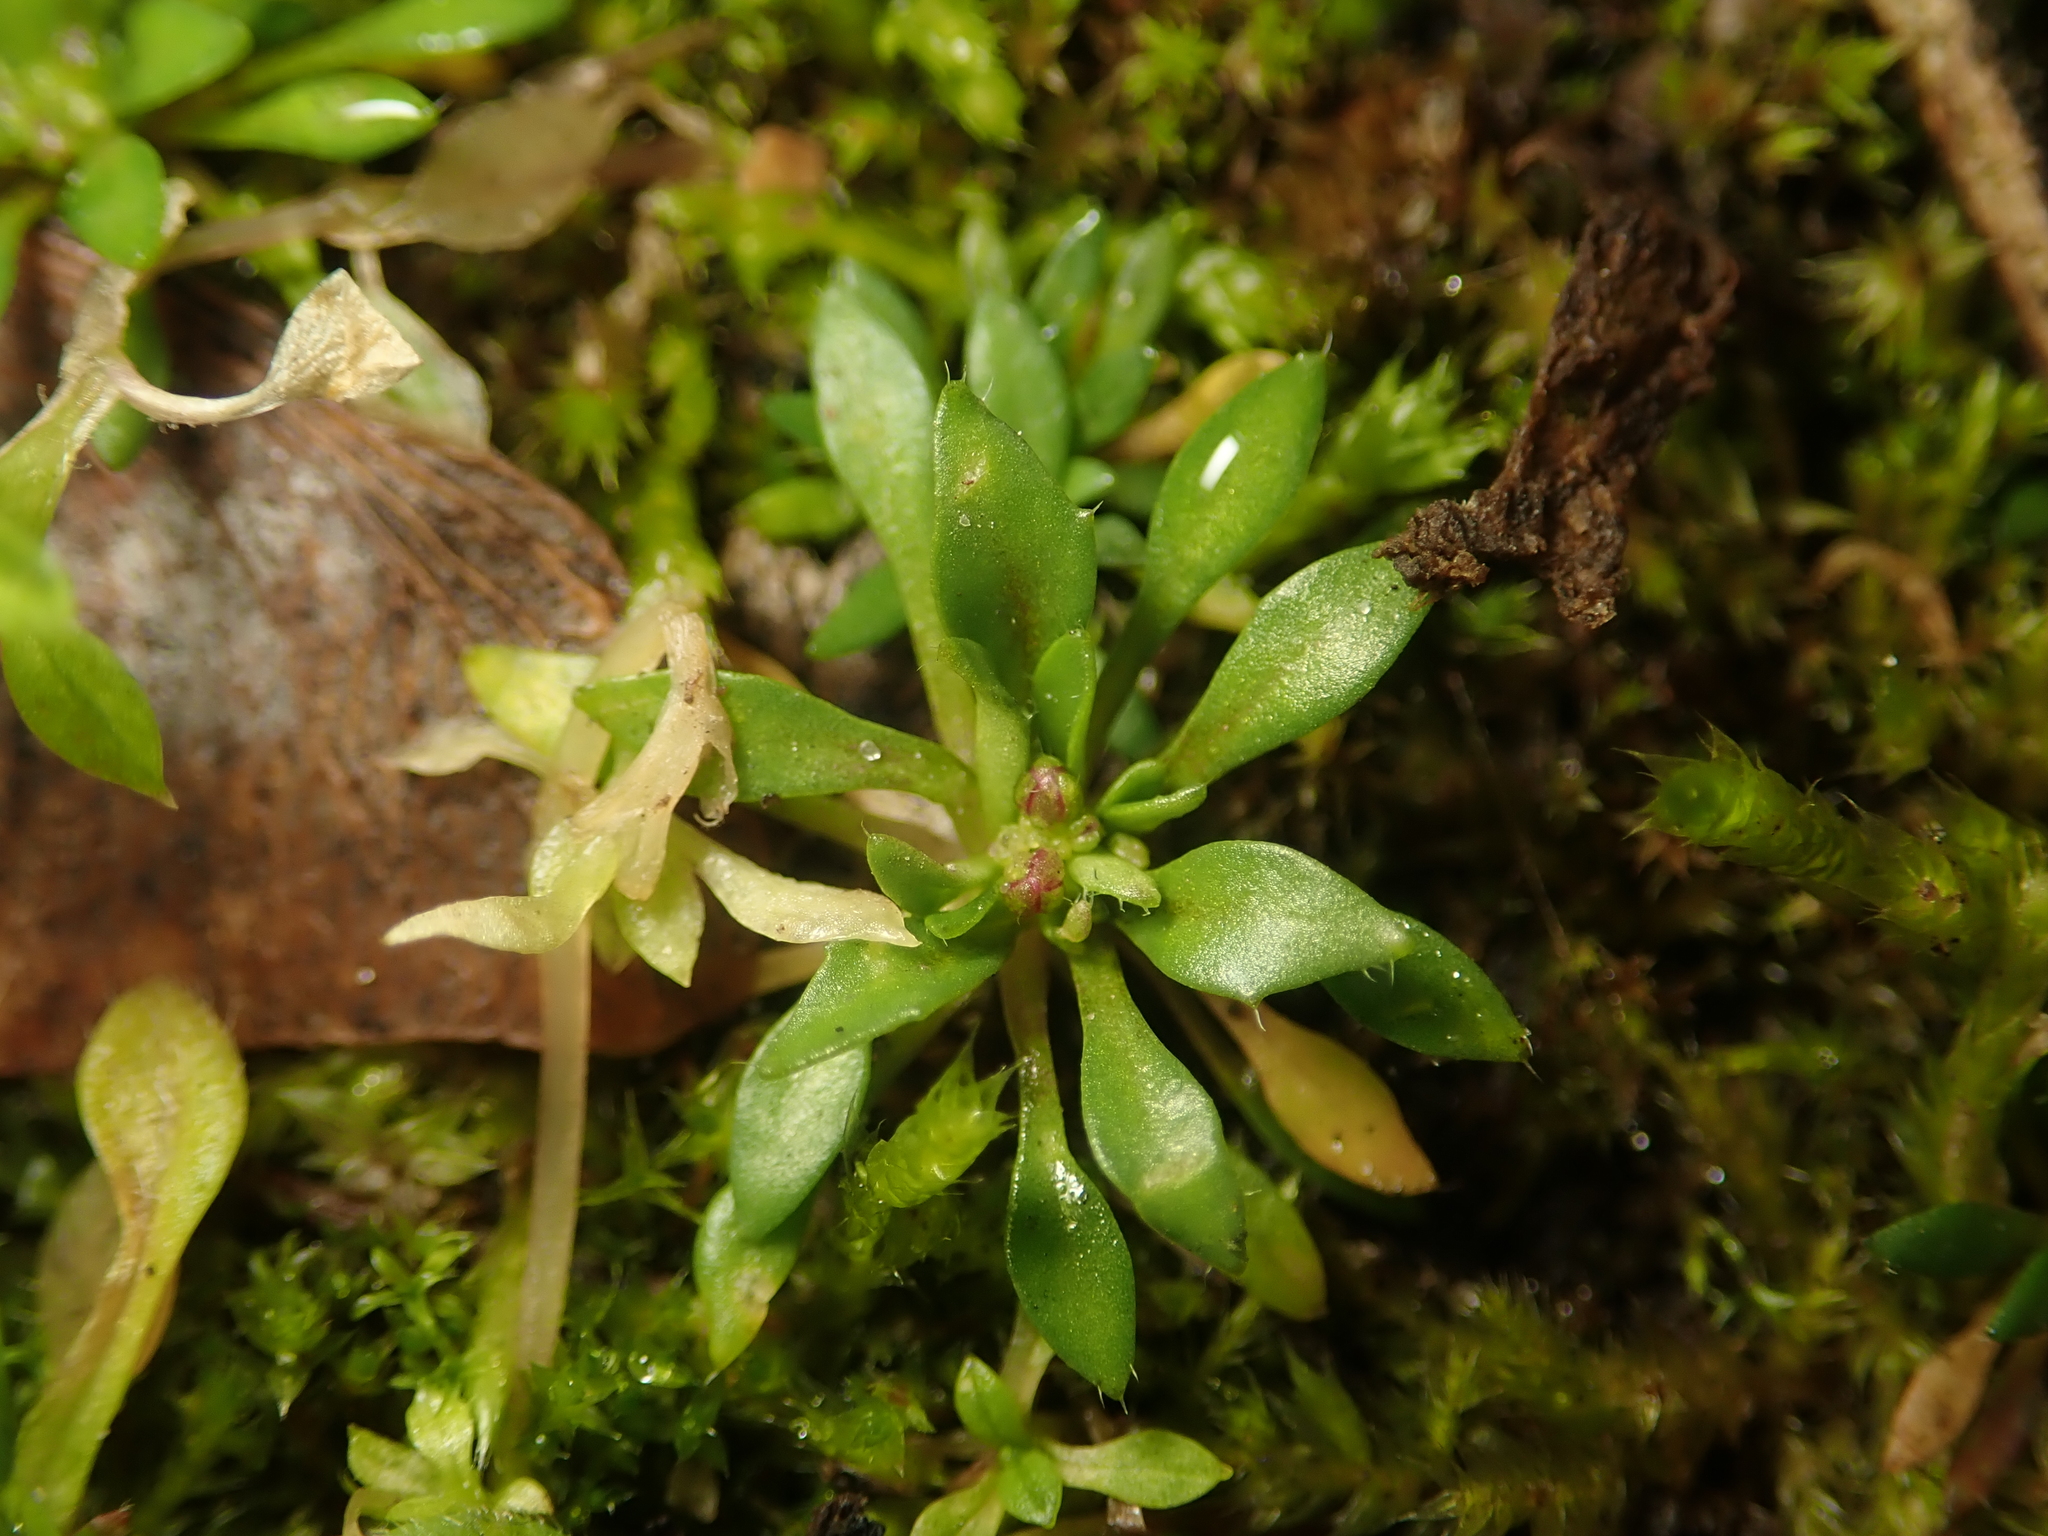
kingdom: Plantae
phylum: Tracheophyta
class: Magnoliopsida
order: Brassicales
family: Brassicaceae
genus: Draba
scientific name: Draba verna
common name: Spring draba
